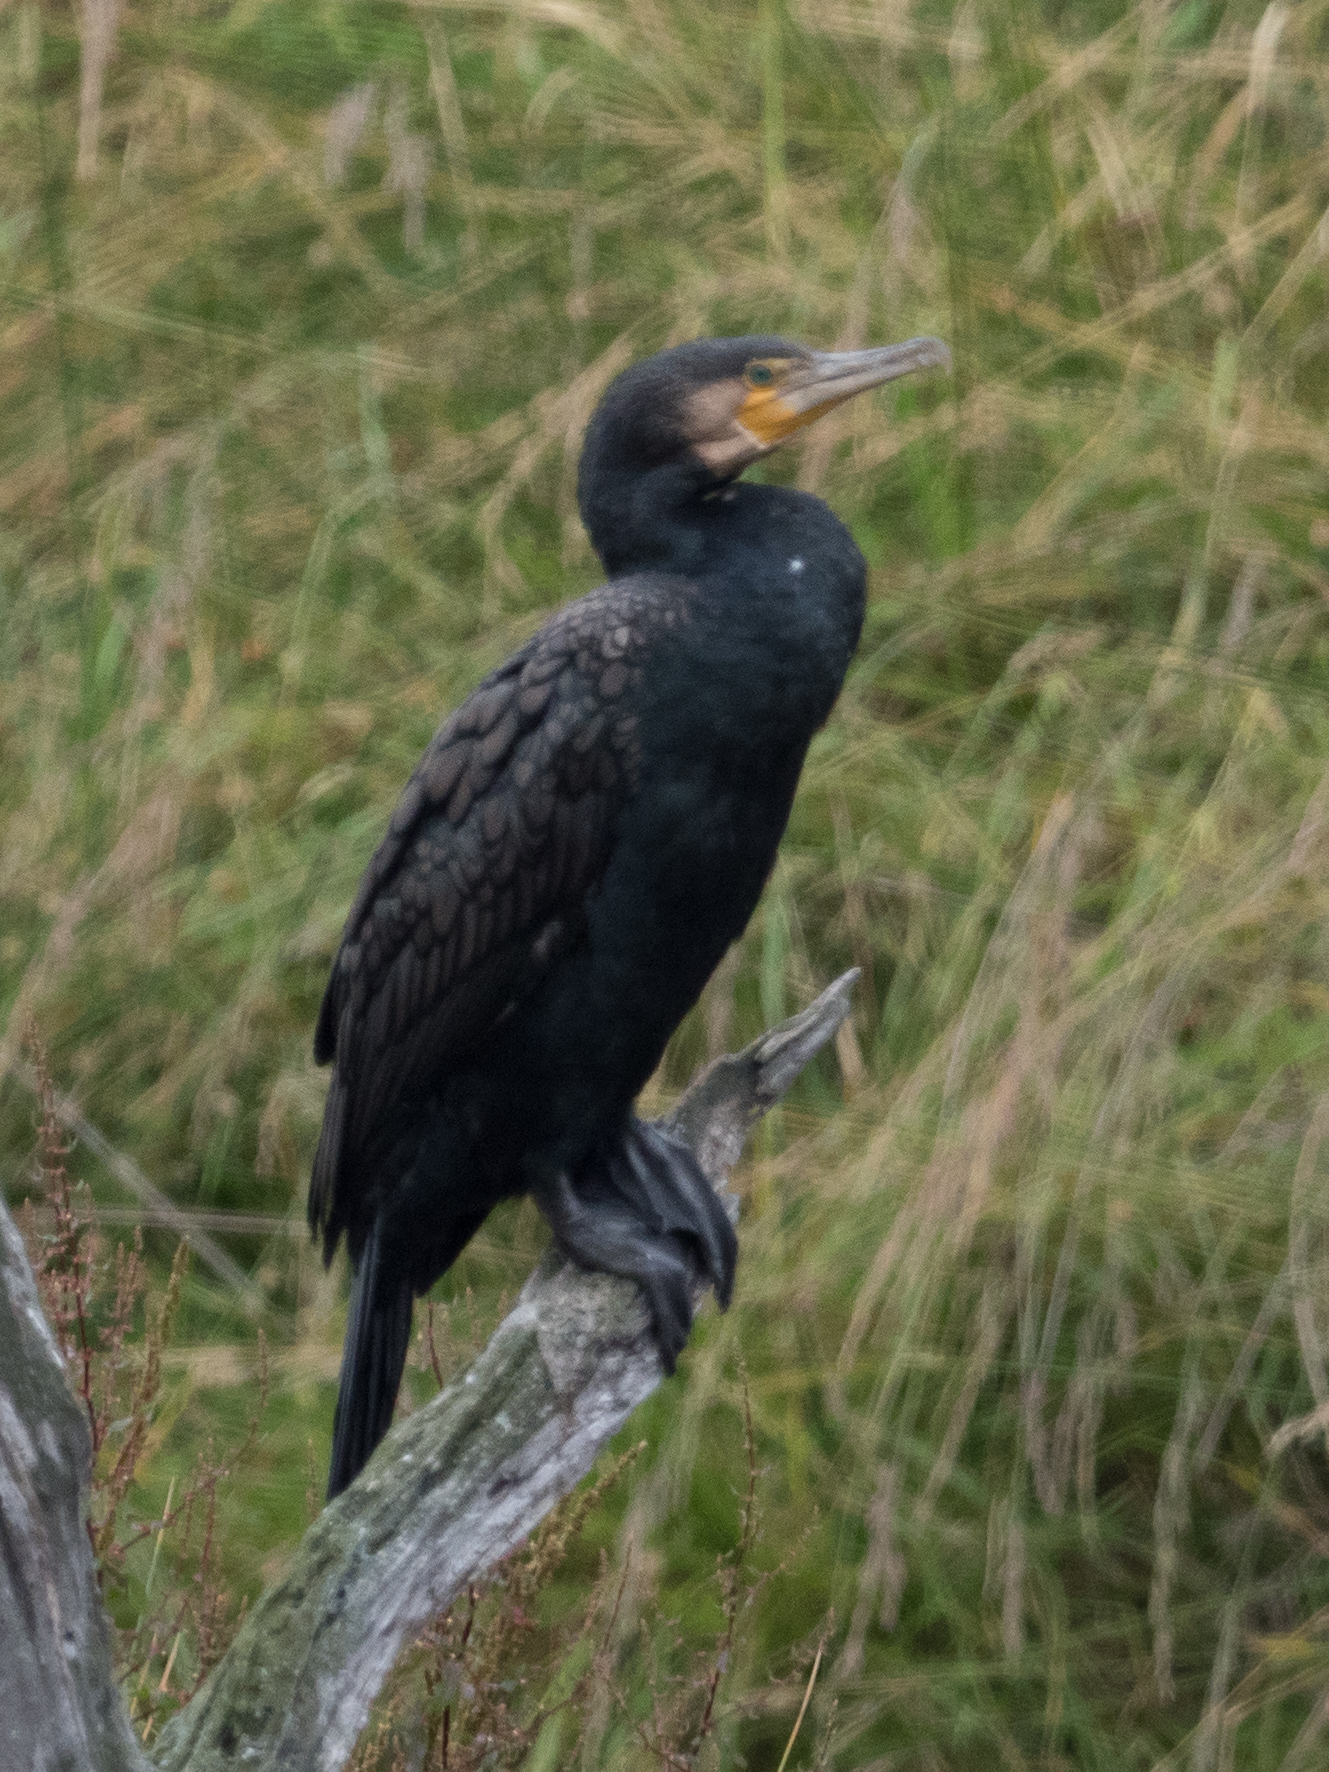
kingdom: Animalia
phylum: Chordata
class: Aves
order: Suliformes
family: Phalacrocoracidae
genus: Phalacrocorax
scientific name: Phalacrocorax carbo
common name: Great cormorant
